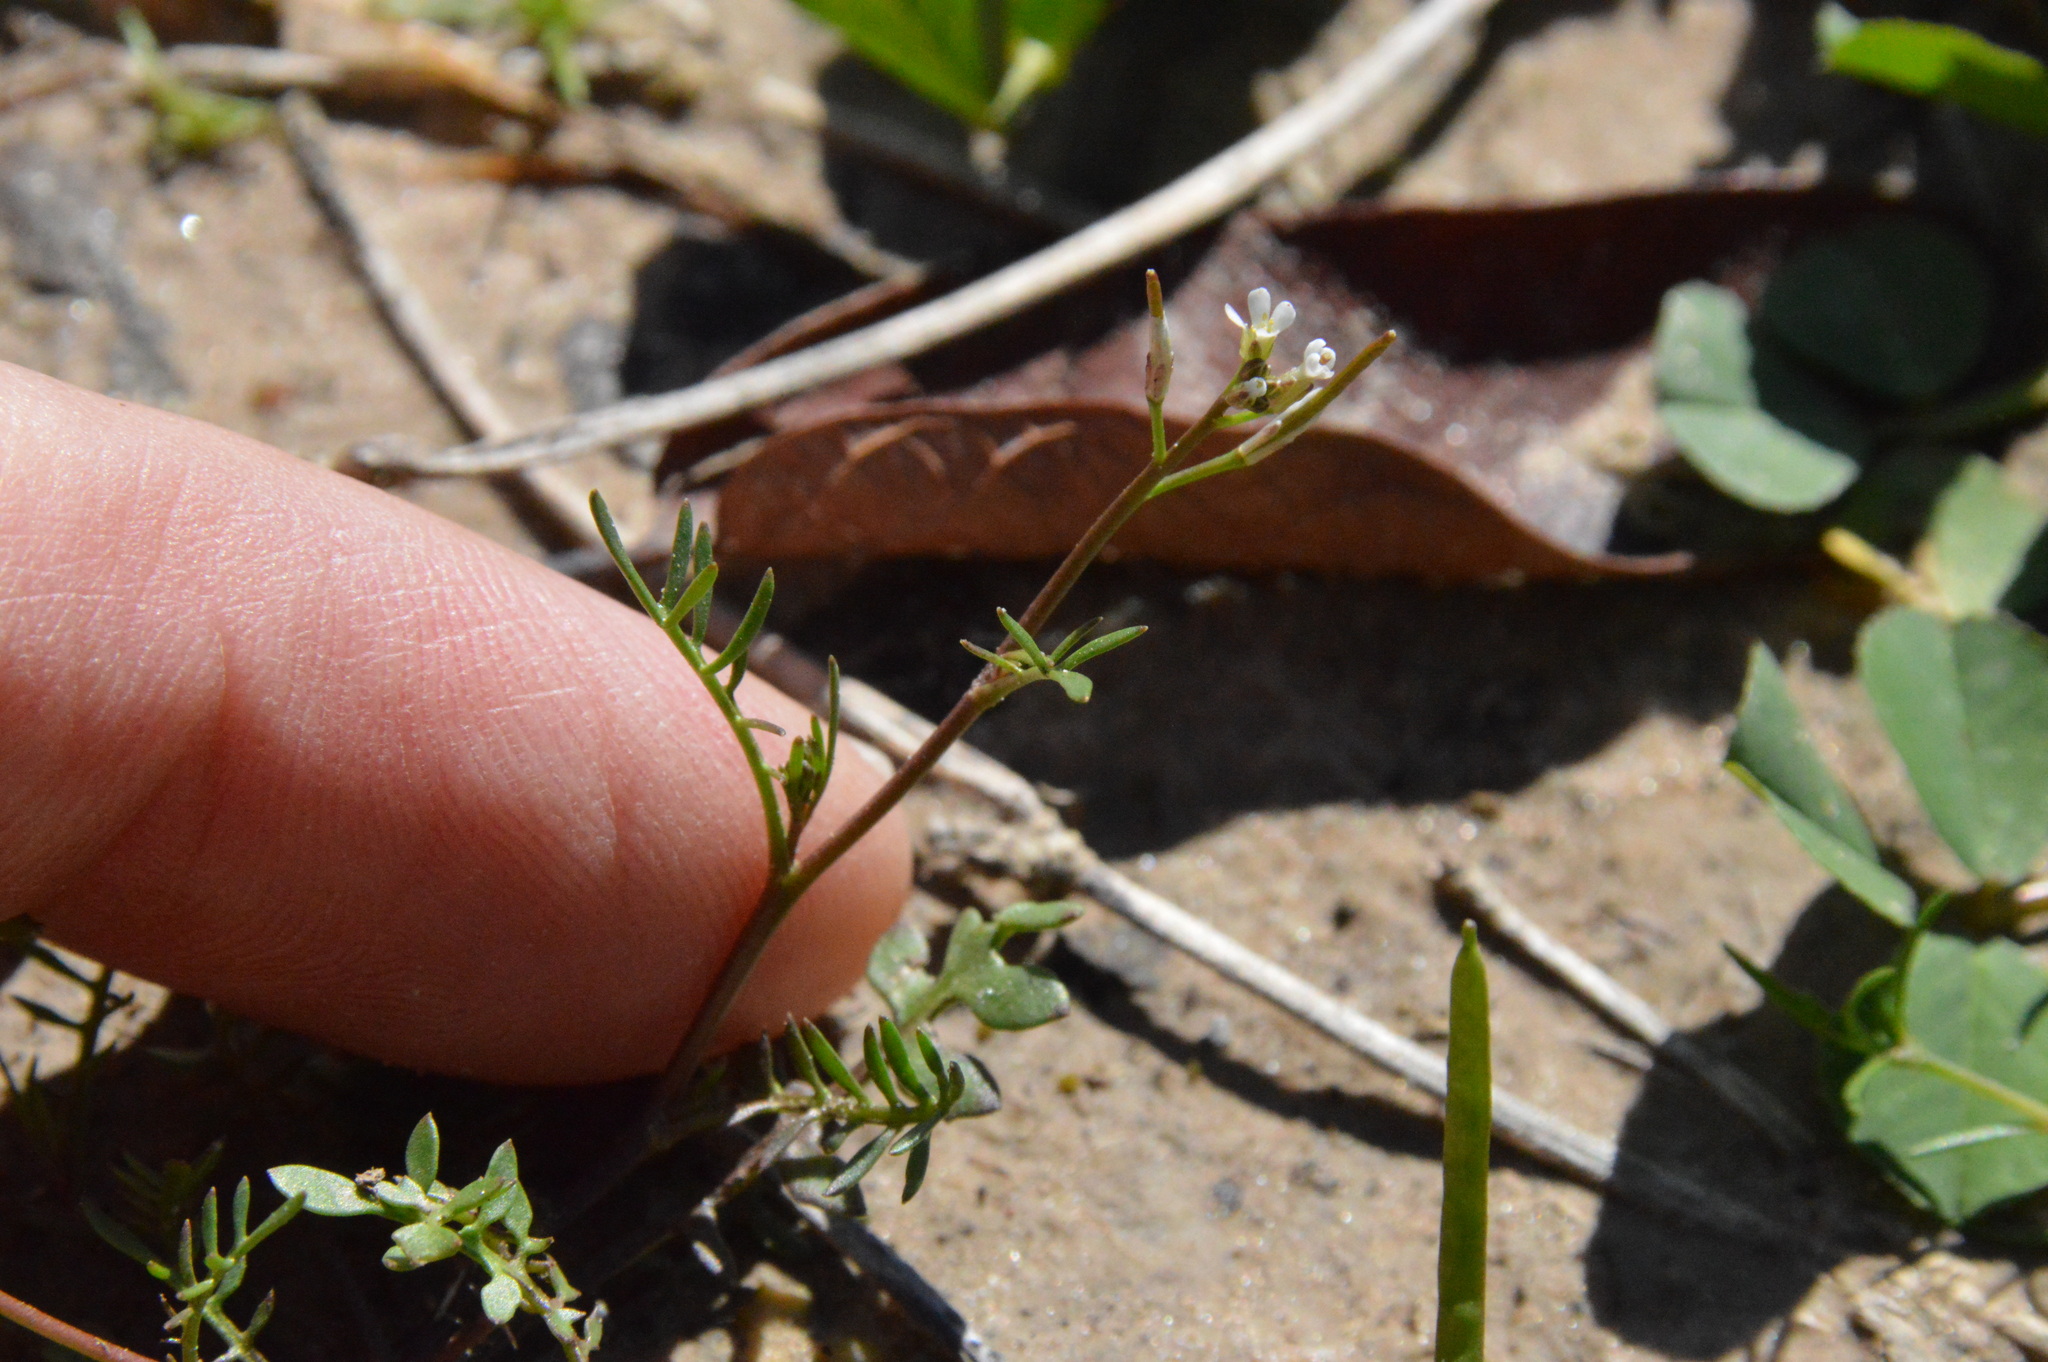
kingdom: Plantae
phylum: Tracheophyta
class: Magnoliopsida
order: Brassicales
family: Brassicaceae
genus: Planodes
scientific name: Planodes virginicum
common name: Virginia cress
